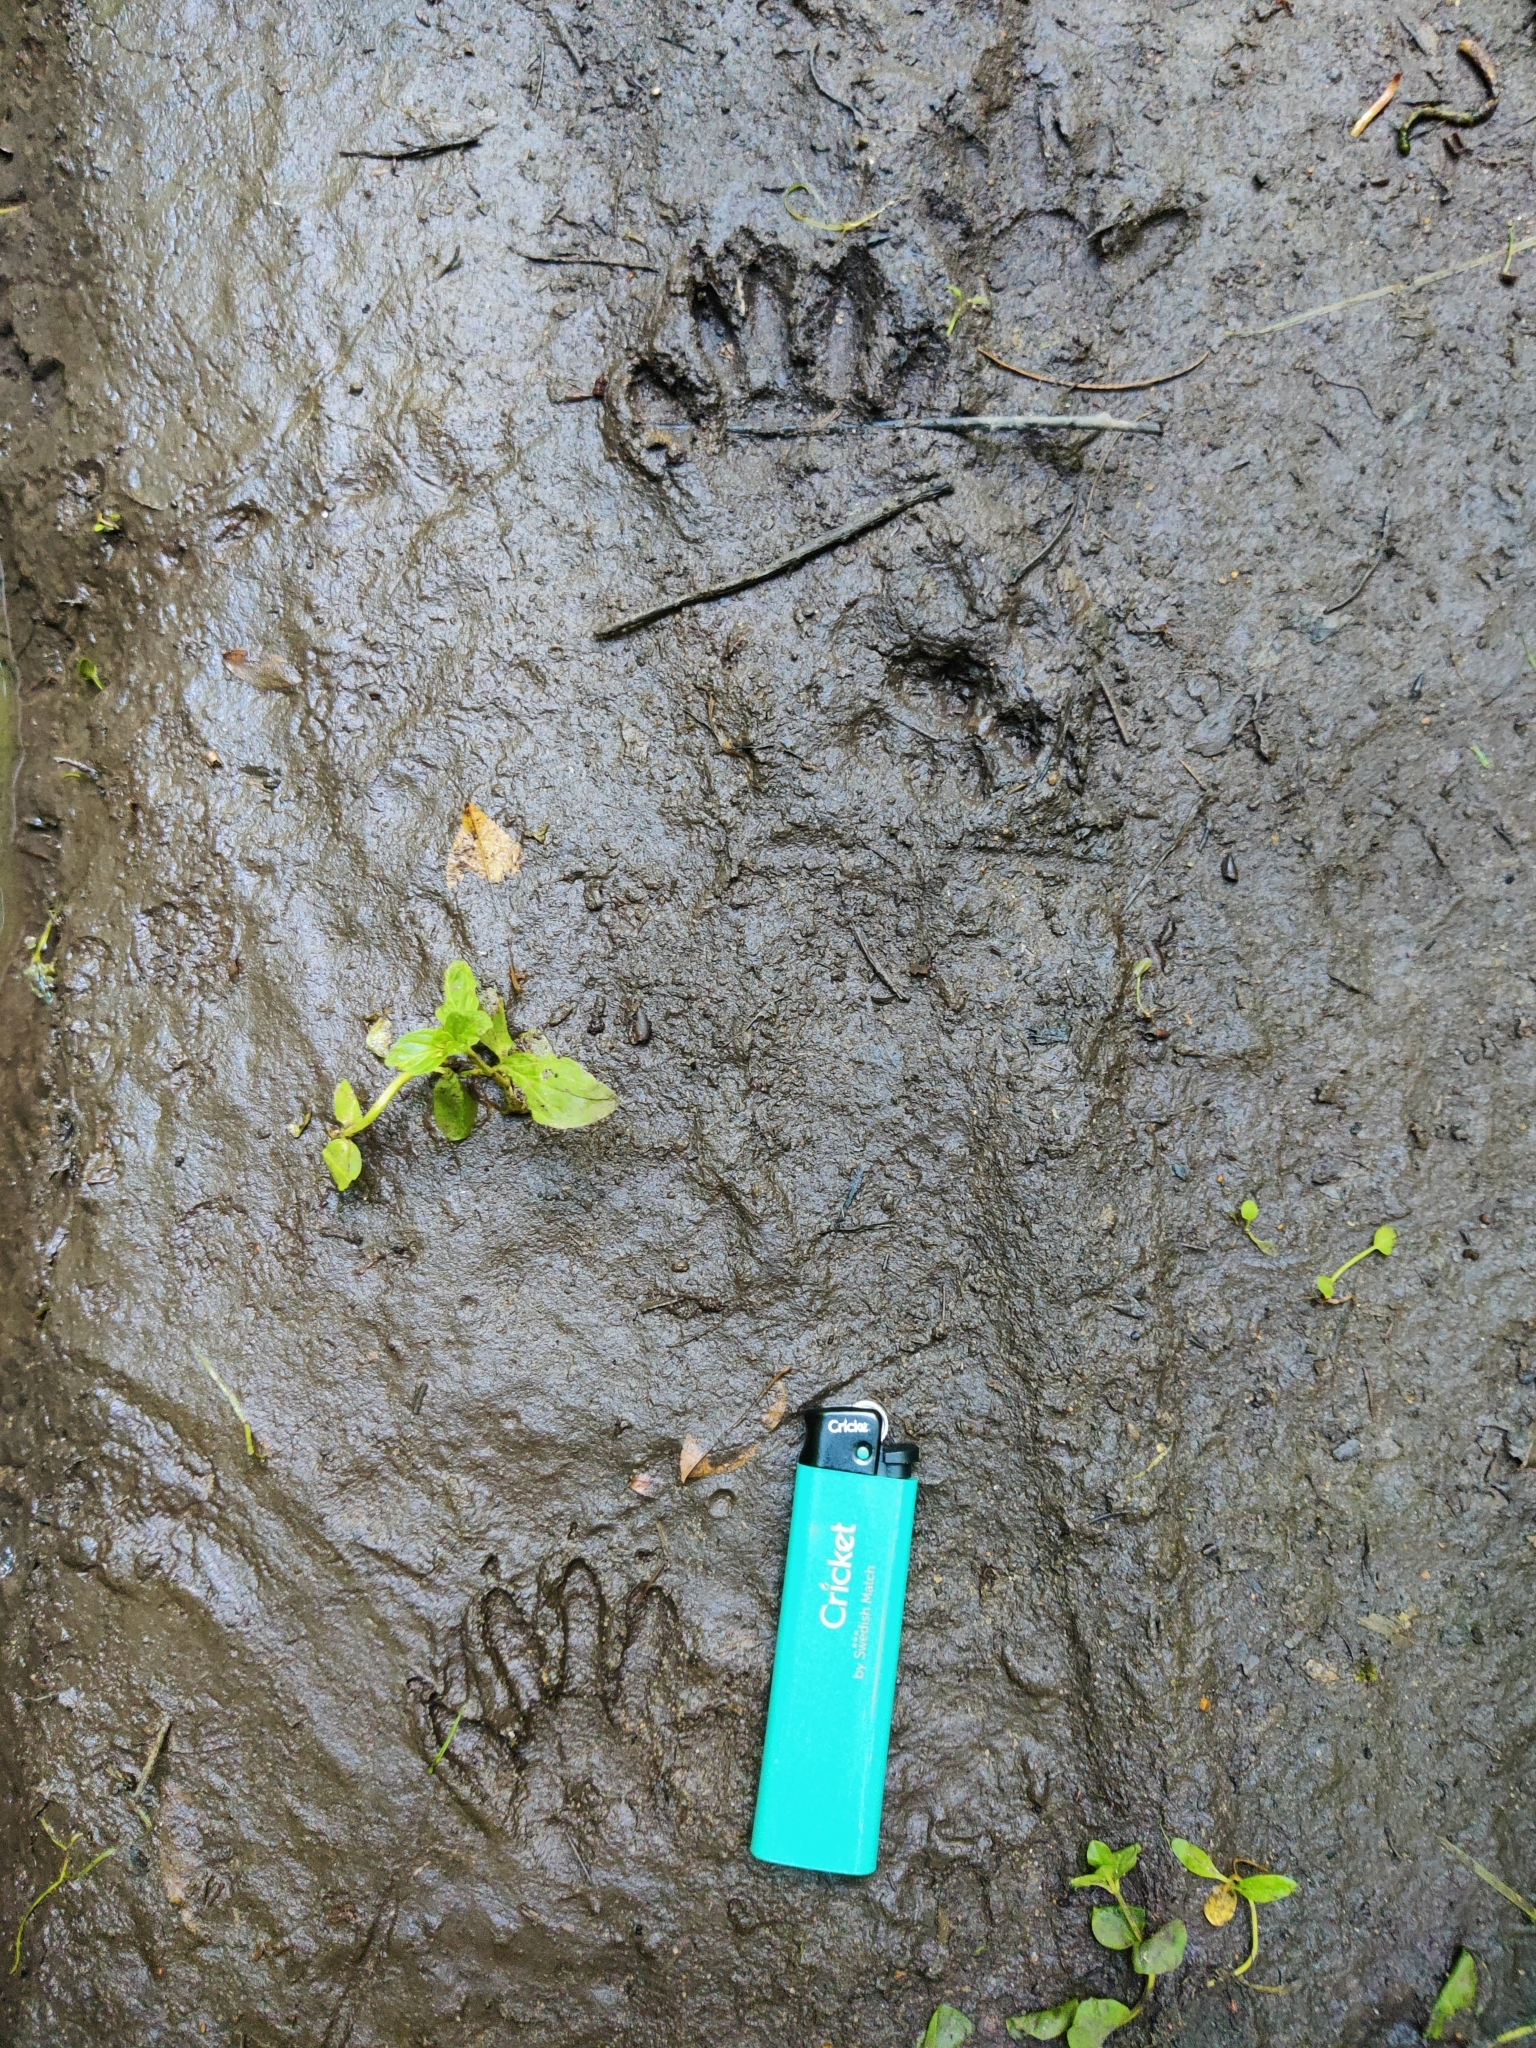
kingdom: Animalia
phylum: Chordata
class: Mammalia
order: Carnivora
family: Procyonidae
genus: Procyon
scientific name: Procyon lotor
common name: Raccoon
